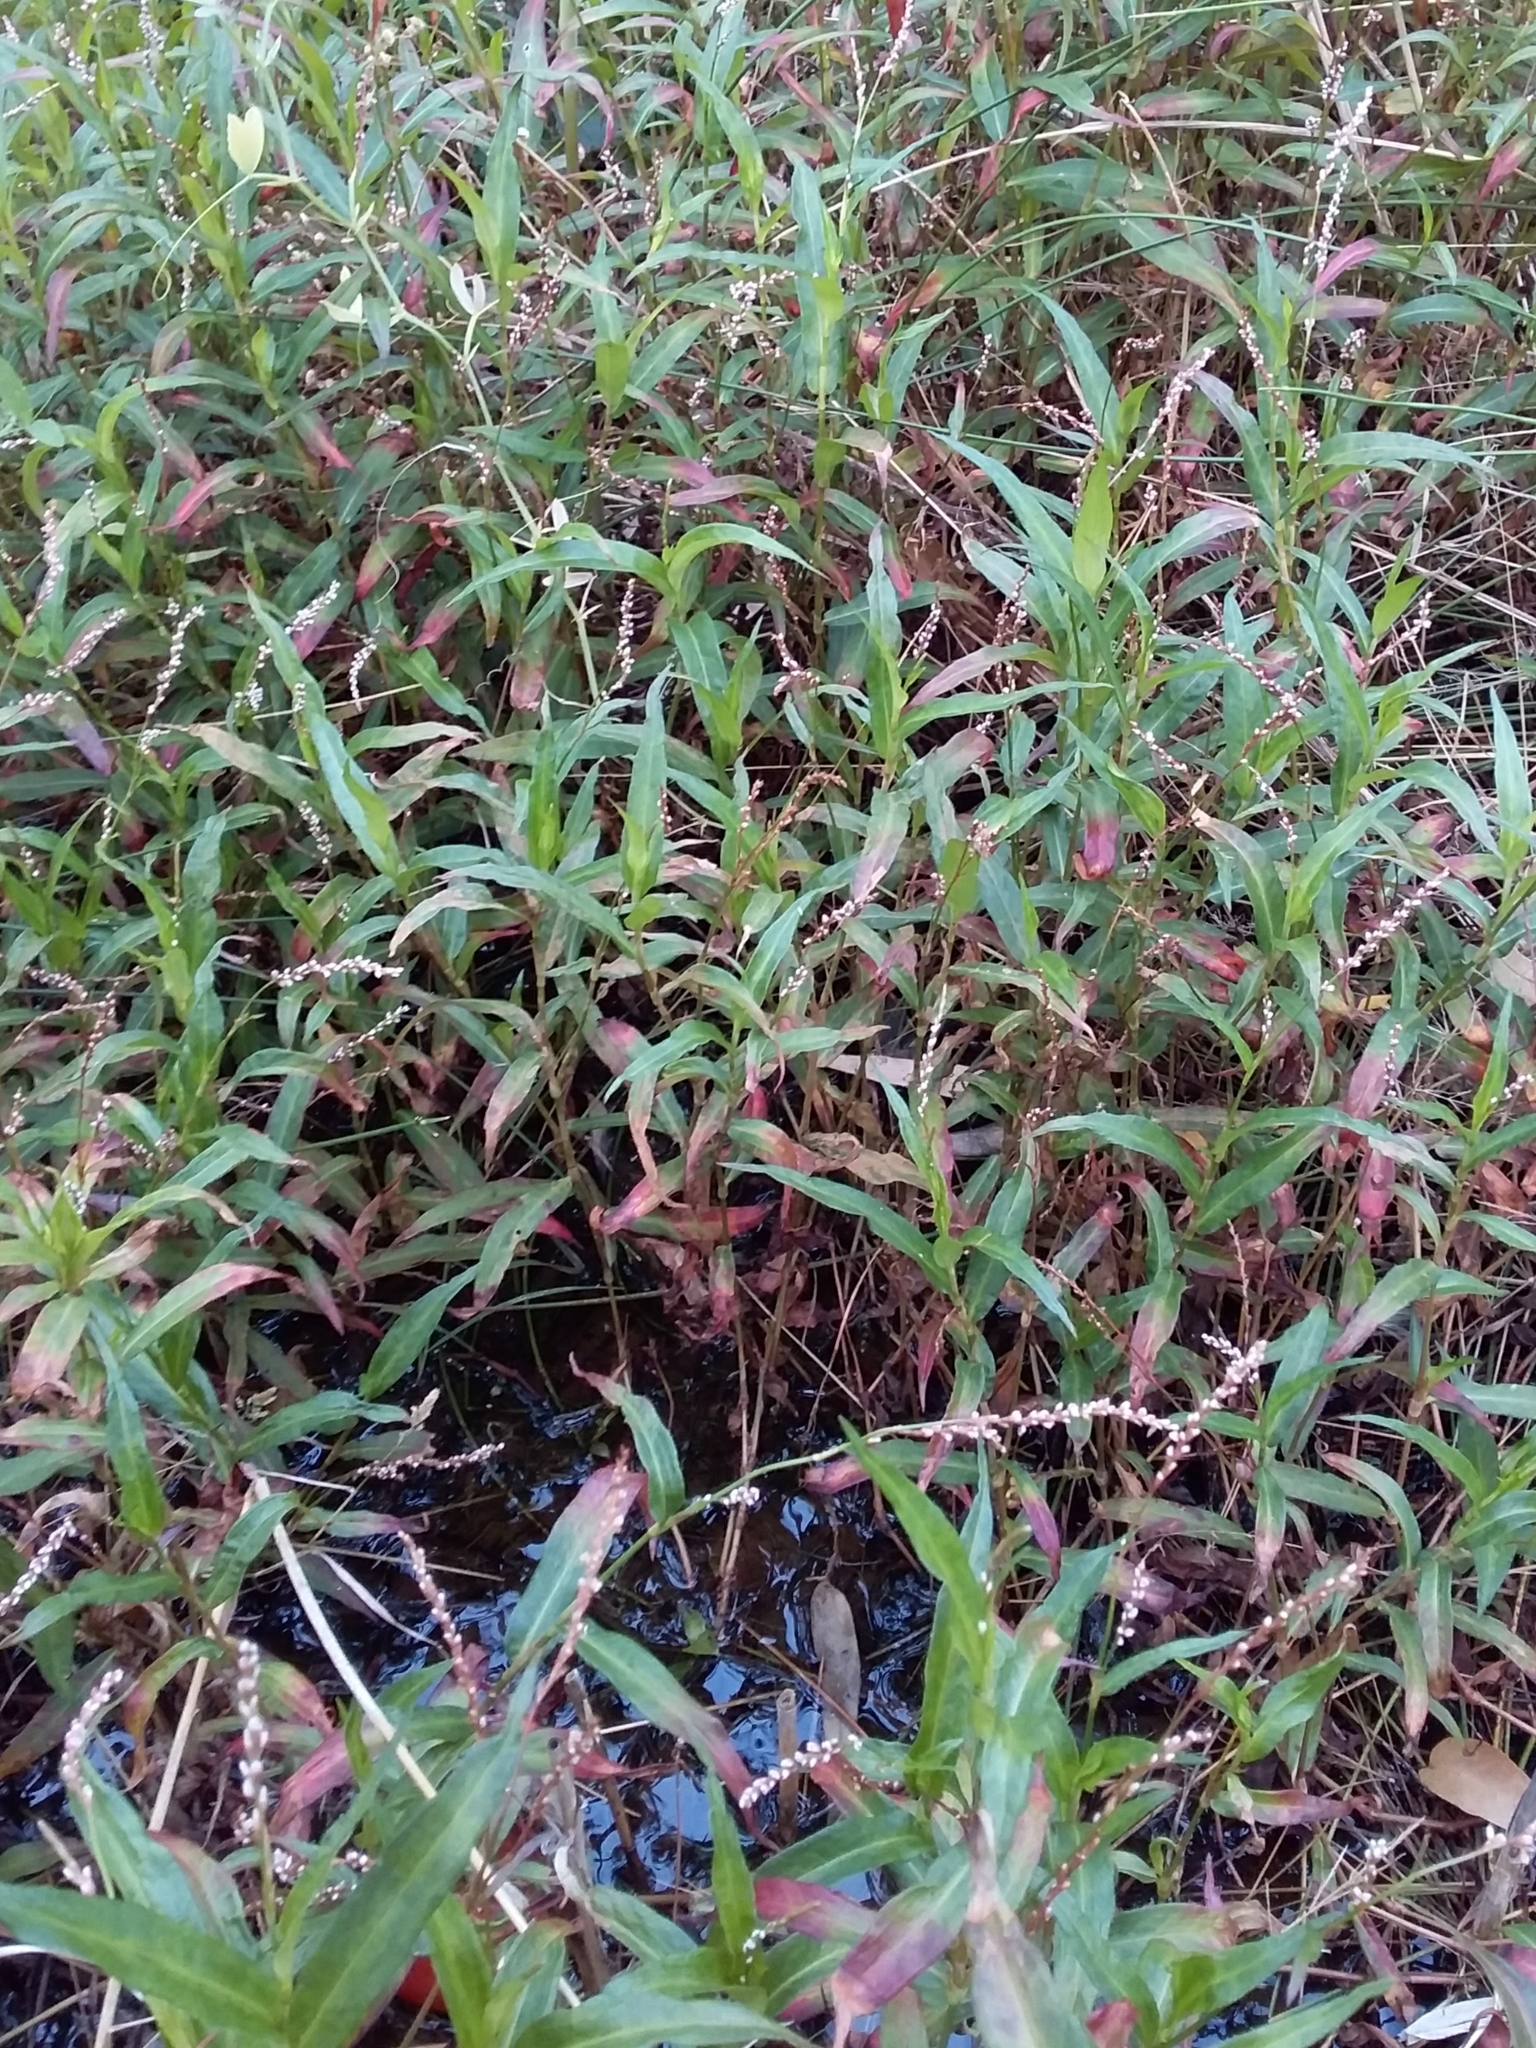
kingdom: Plantae
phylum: Tracheophyta
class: Magnoliopsida
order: Caryophyllales
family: Polygonaceae
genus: Persicaria
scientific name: Persicaria decipiens
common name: Willow-weed
